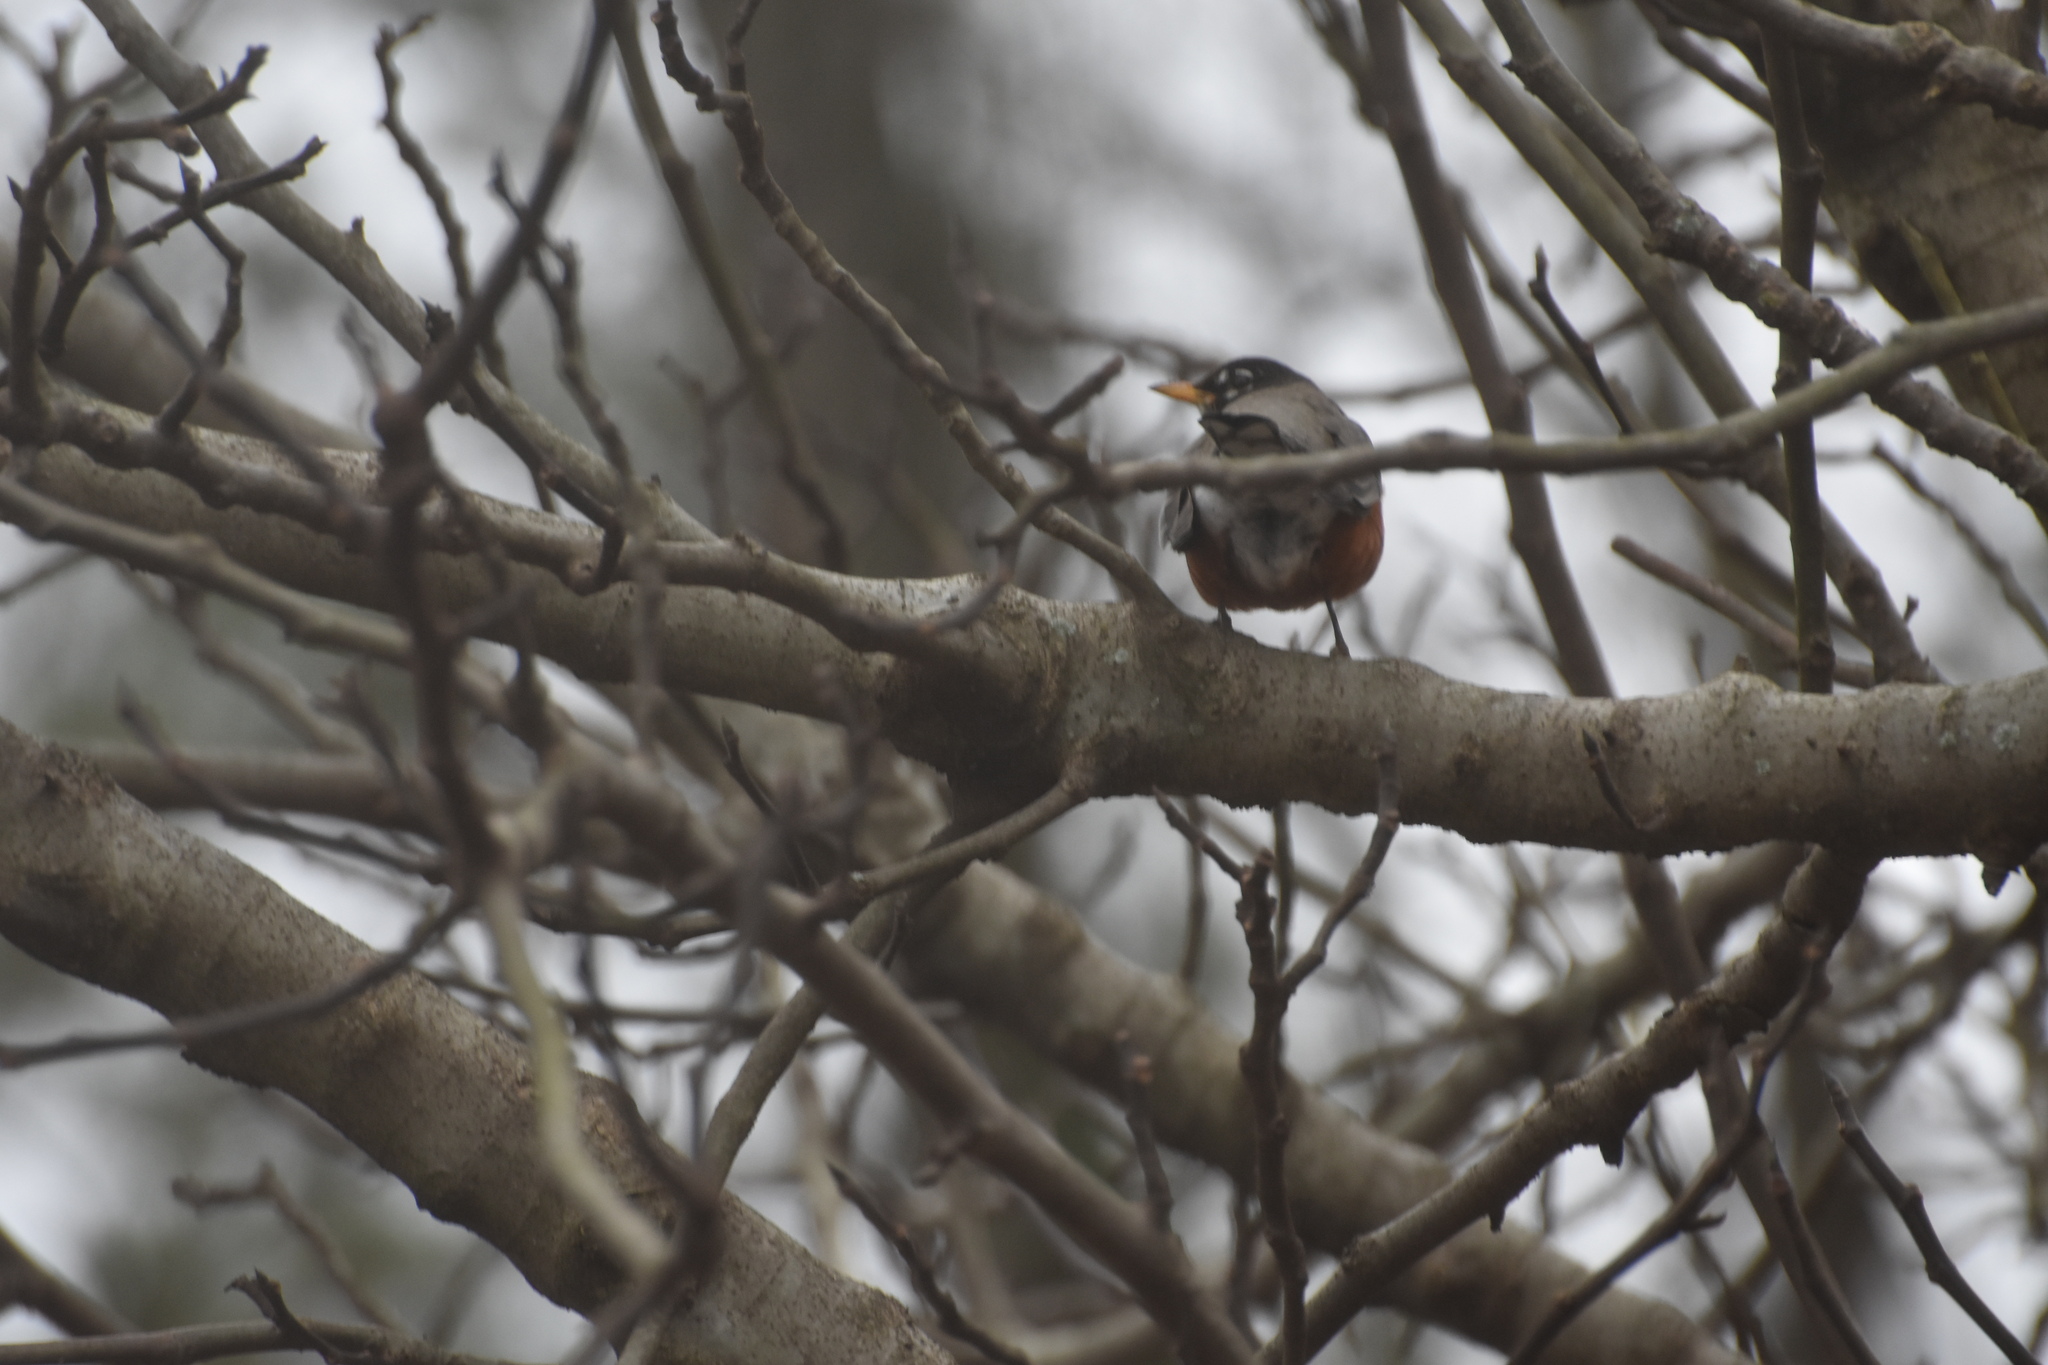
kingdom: Animalia
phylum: Chordata
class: Aves
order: Passeriformes
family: Turdidae
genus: Turdus
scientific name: Turdus migratorius
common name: American robin
